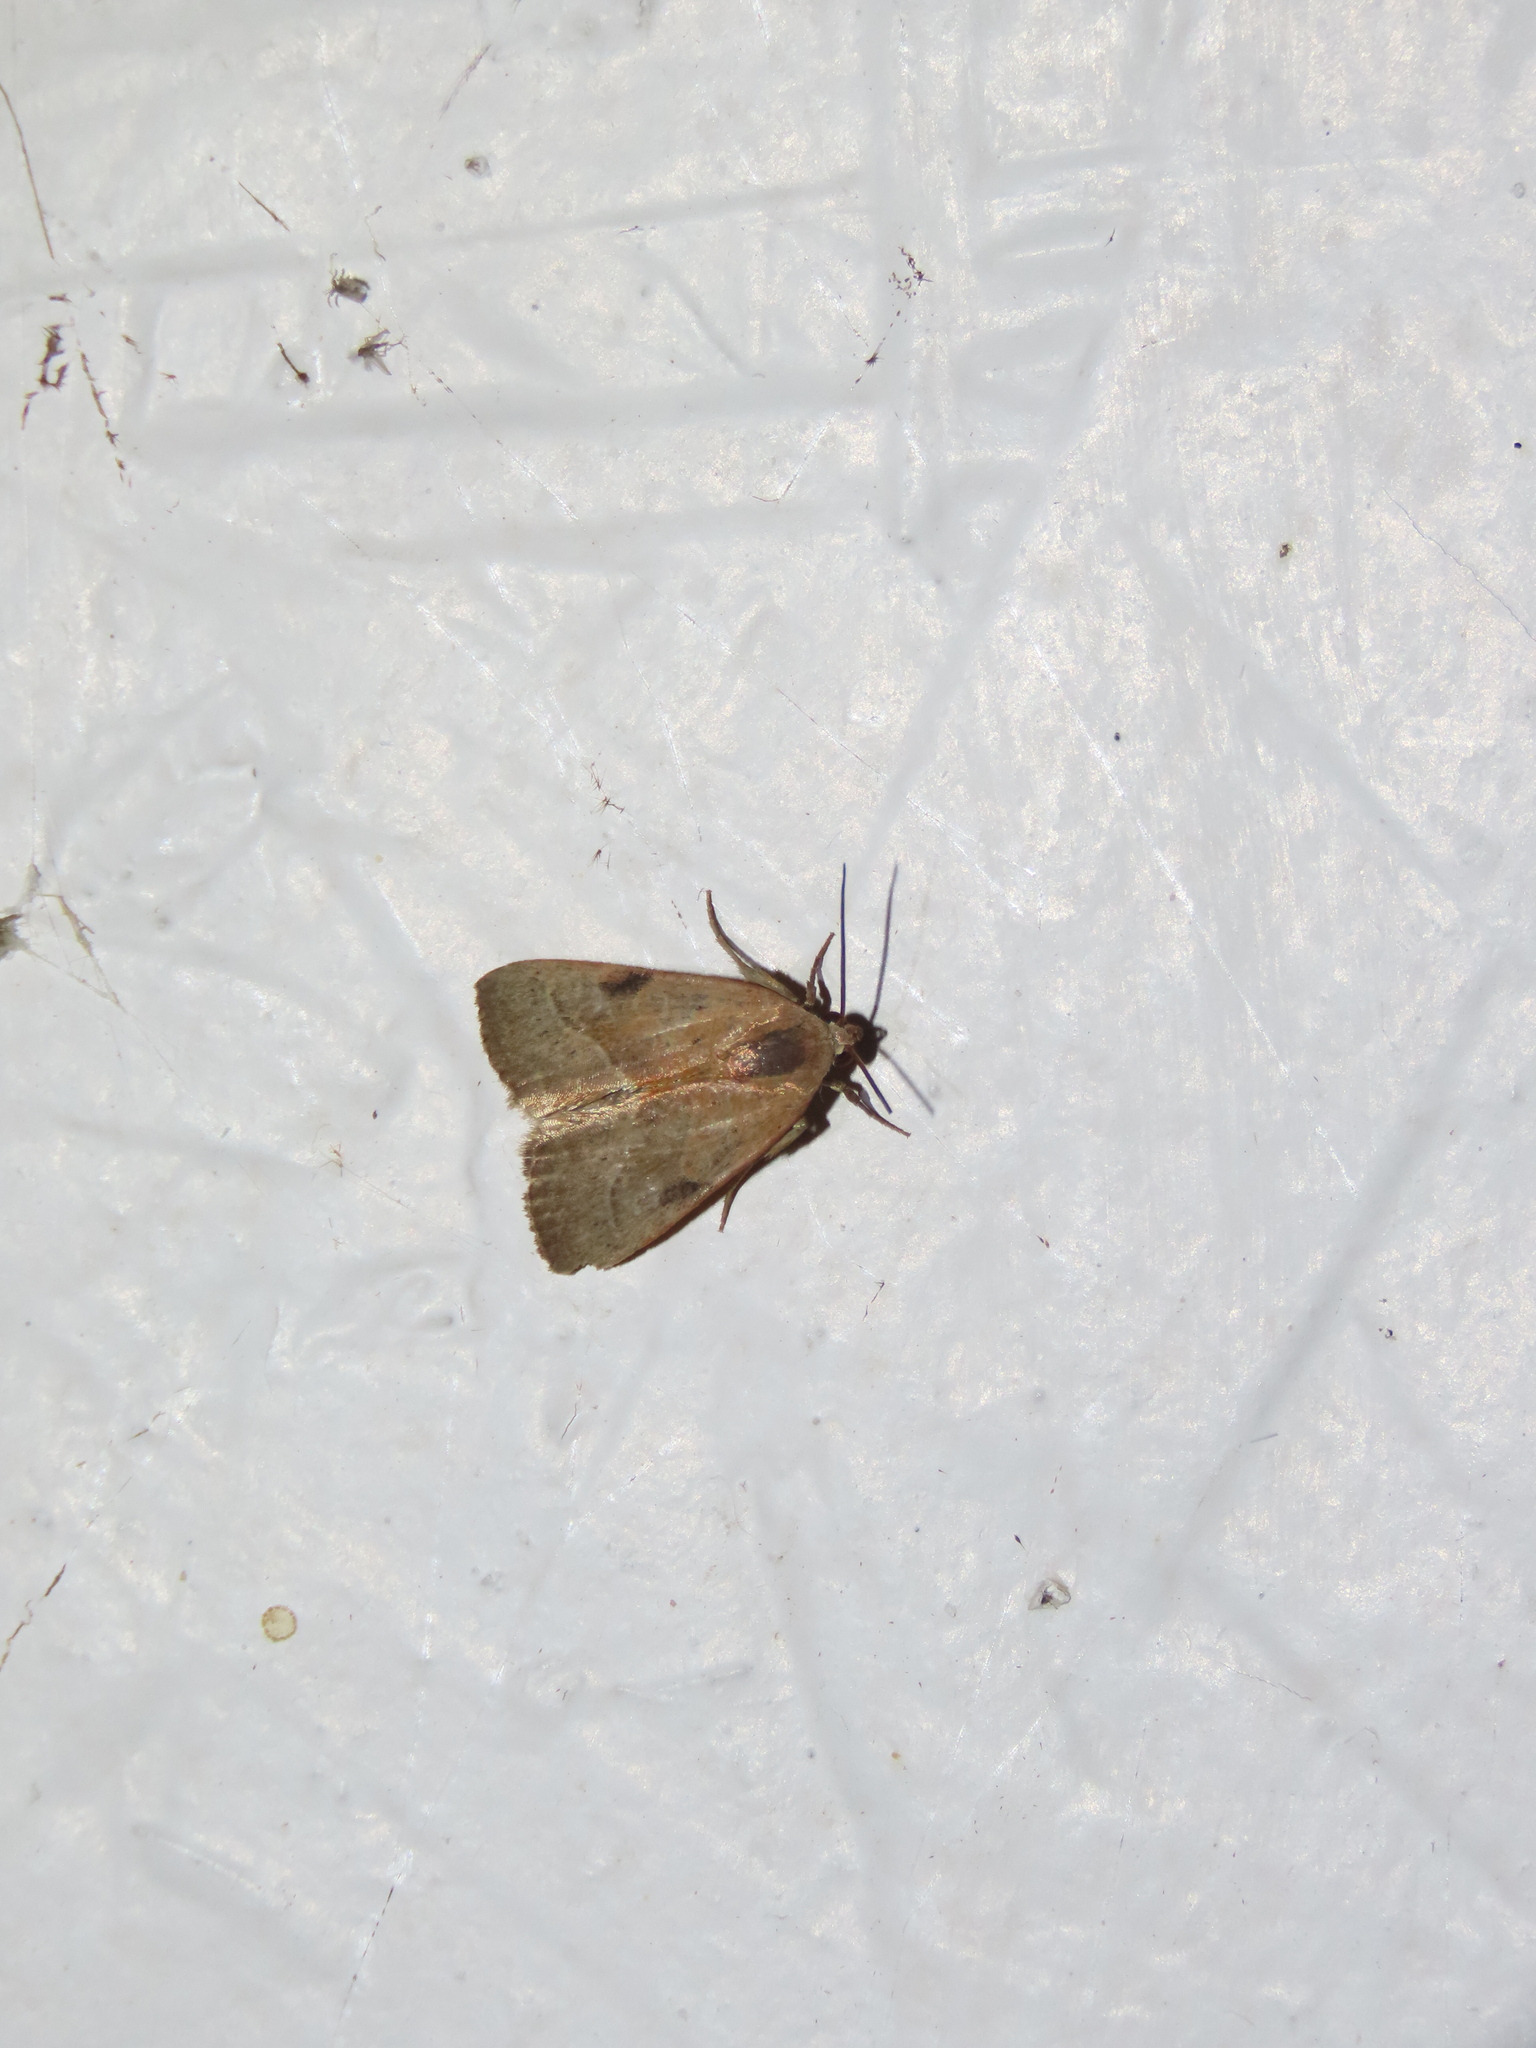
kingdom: Animalia
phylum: Arthropoda
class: Insecta
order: Lepidoptera
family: Noctuidae
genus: Galgula
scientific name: Galgula partita
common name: Wedgeling
